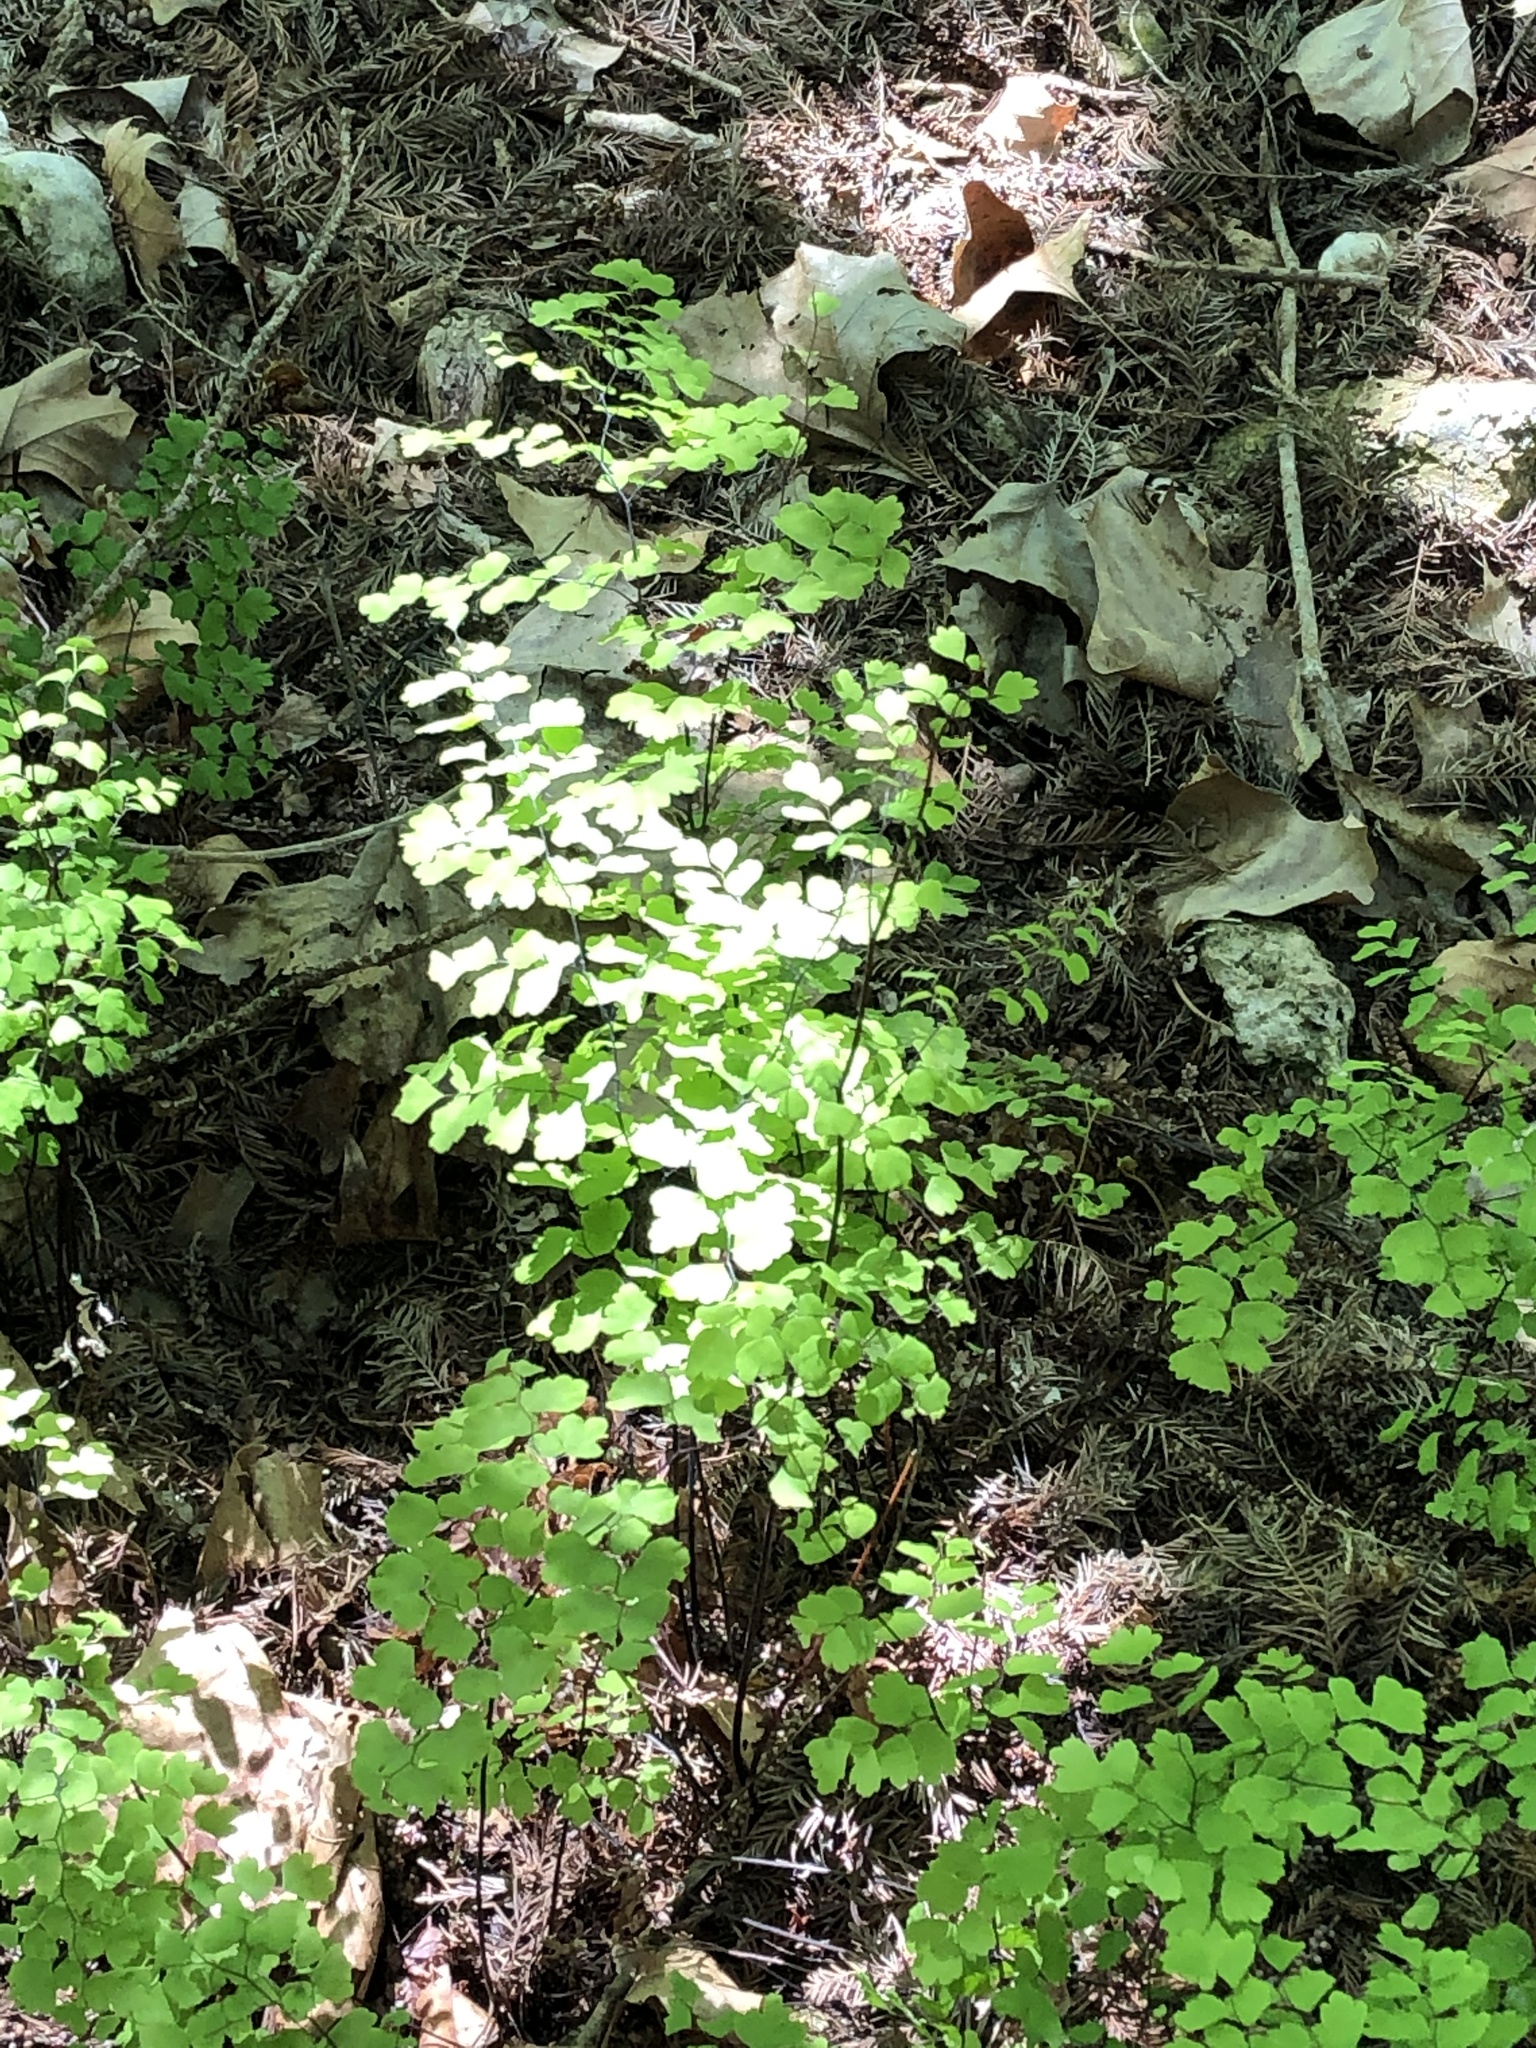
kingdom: Plantae
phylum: Tracheophyta
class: Polypodiopsida
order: Polypodiales
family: Pteridaceae
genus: Adiantum
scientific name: Adiantum capillus-veneris
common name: Maidenhair fern
